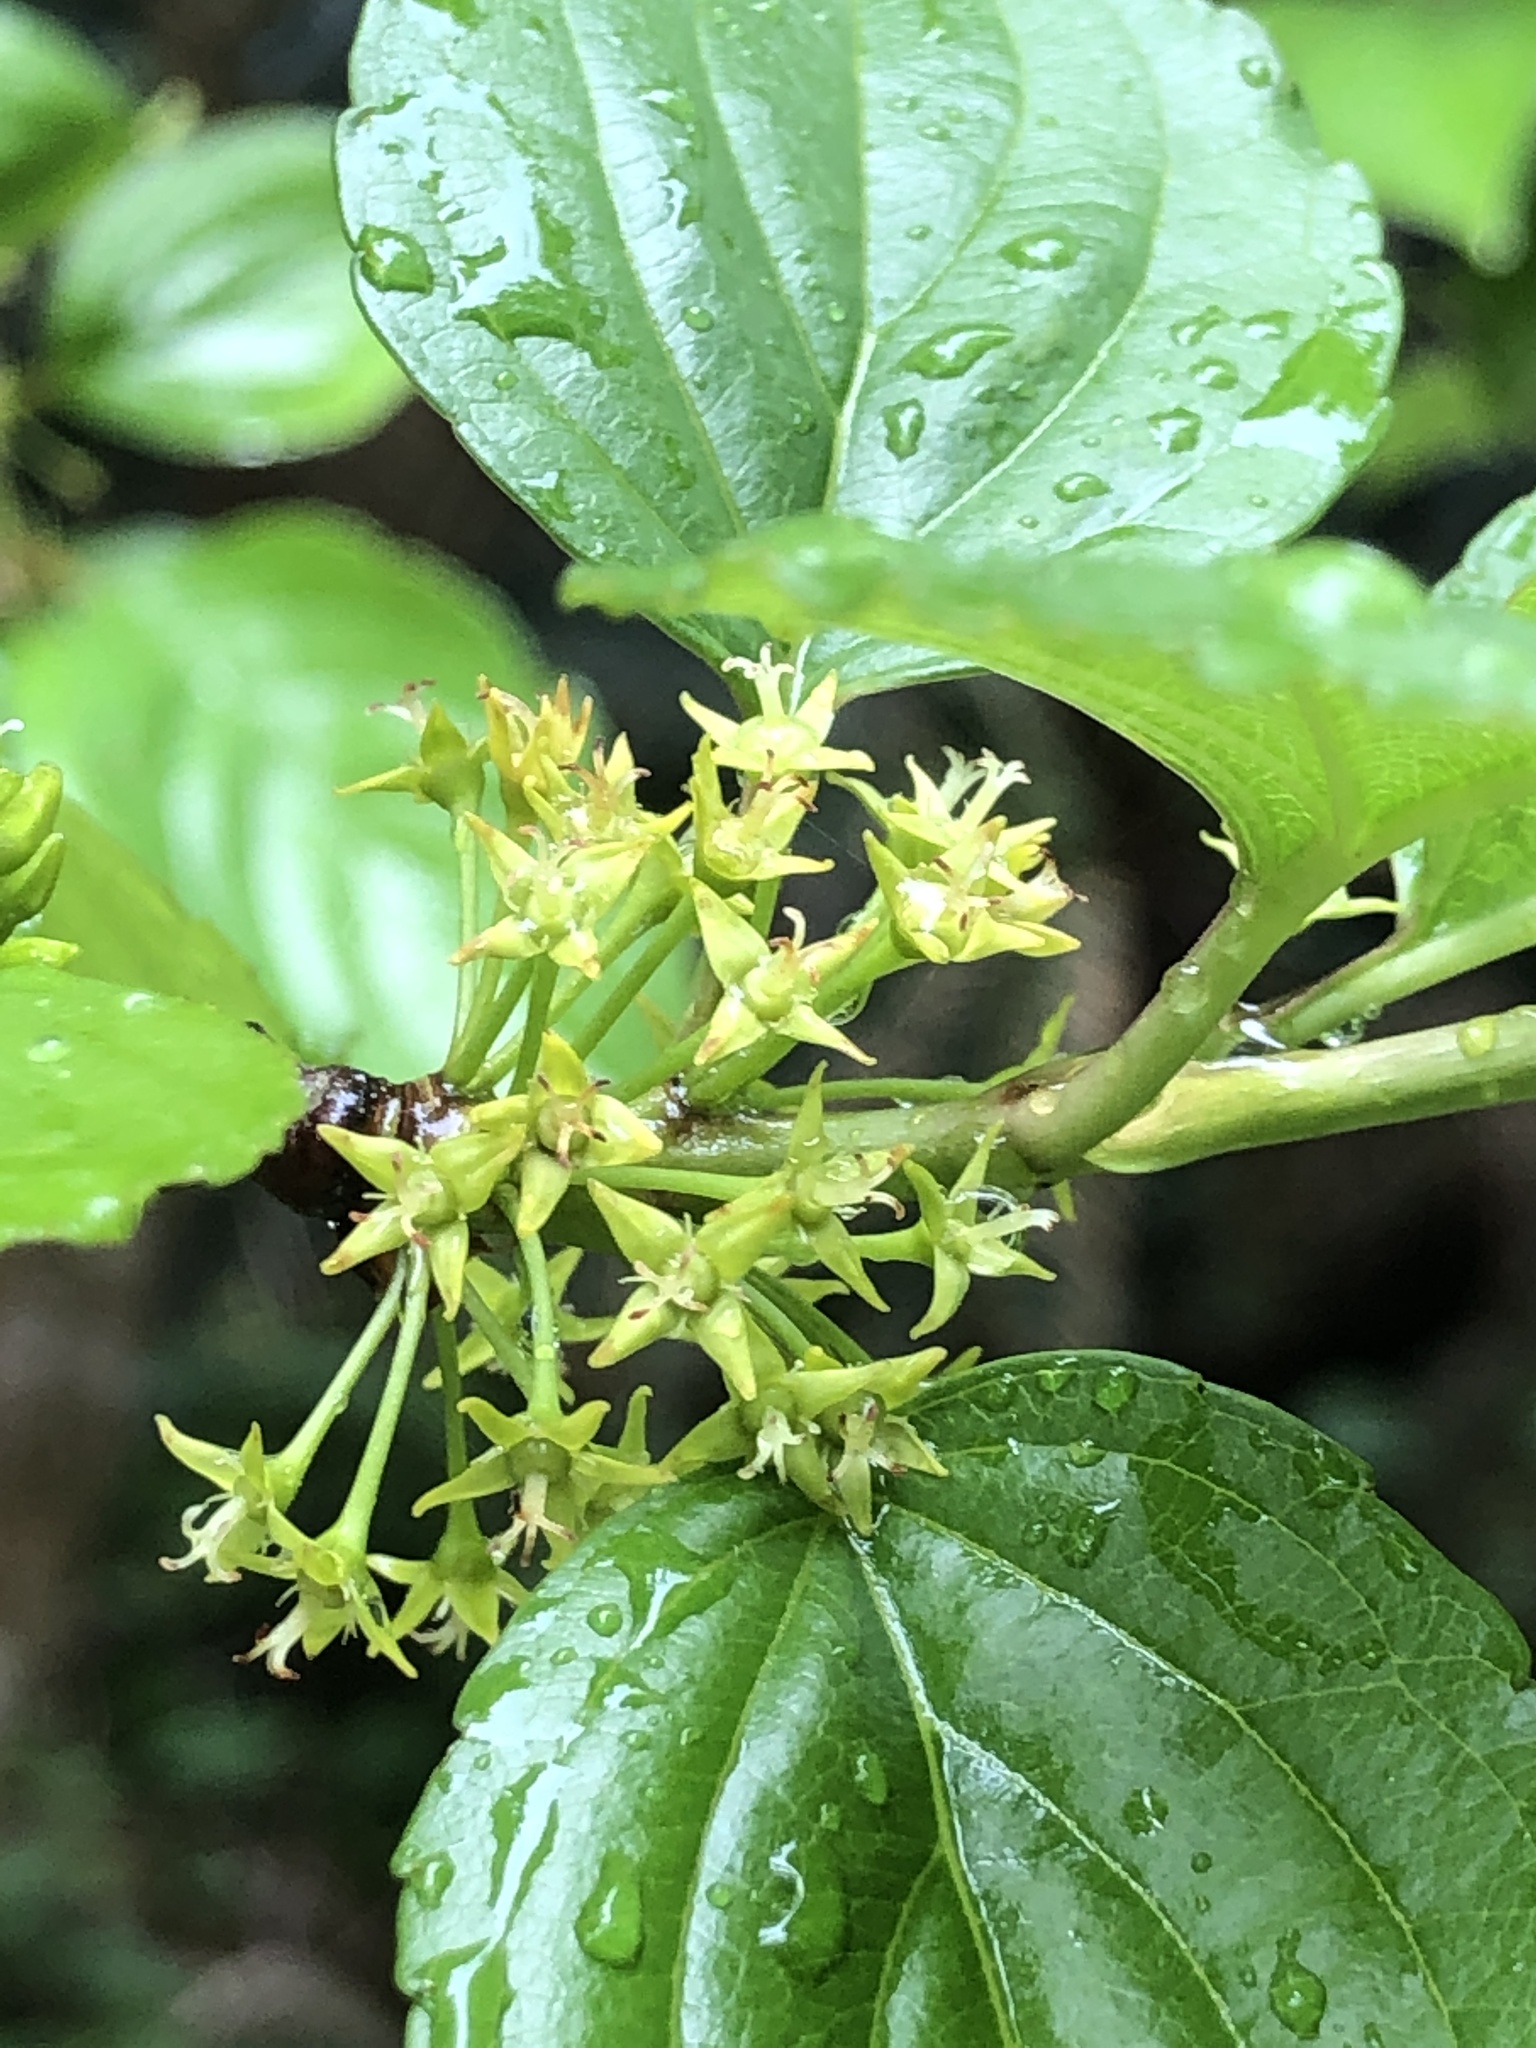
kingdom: Plantae
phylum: Tracheophyta
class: Magnoliopsida
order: Rosales
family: Rhamnaceae
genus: Rhamnus
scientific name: Rhamnus liukiuensis
